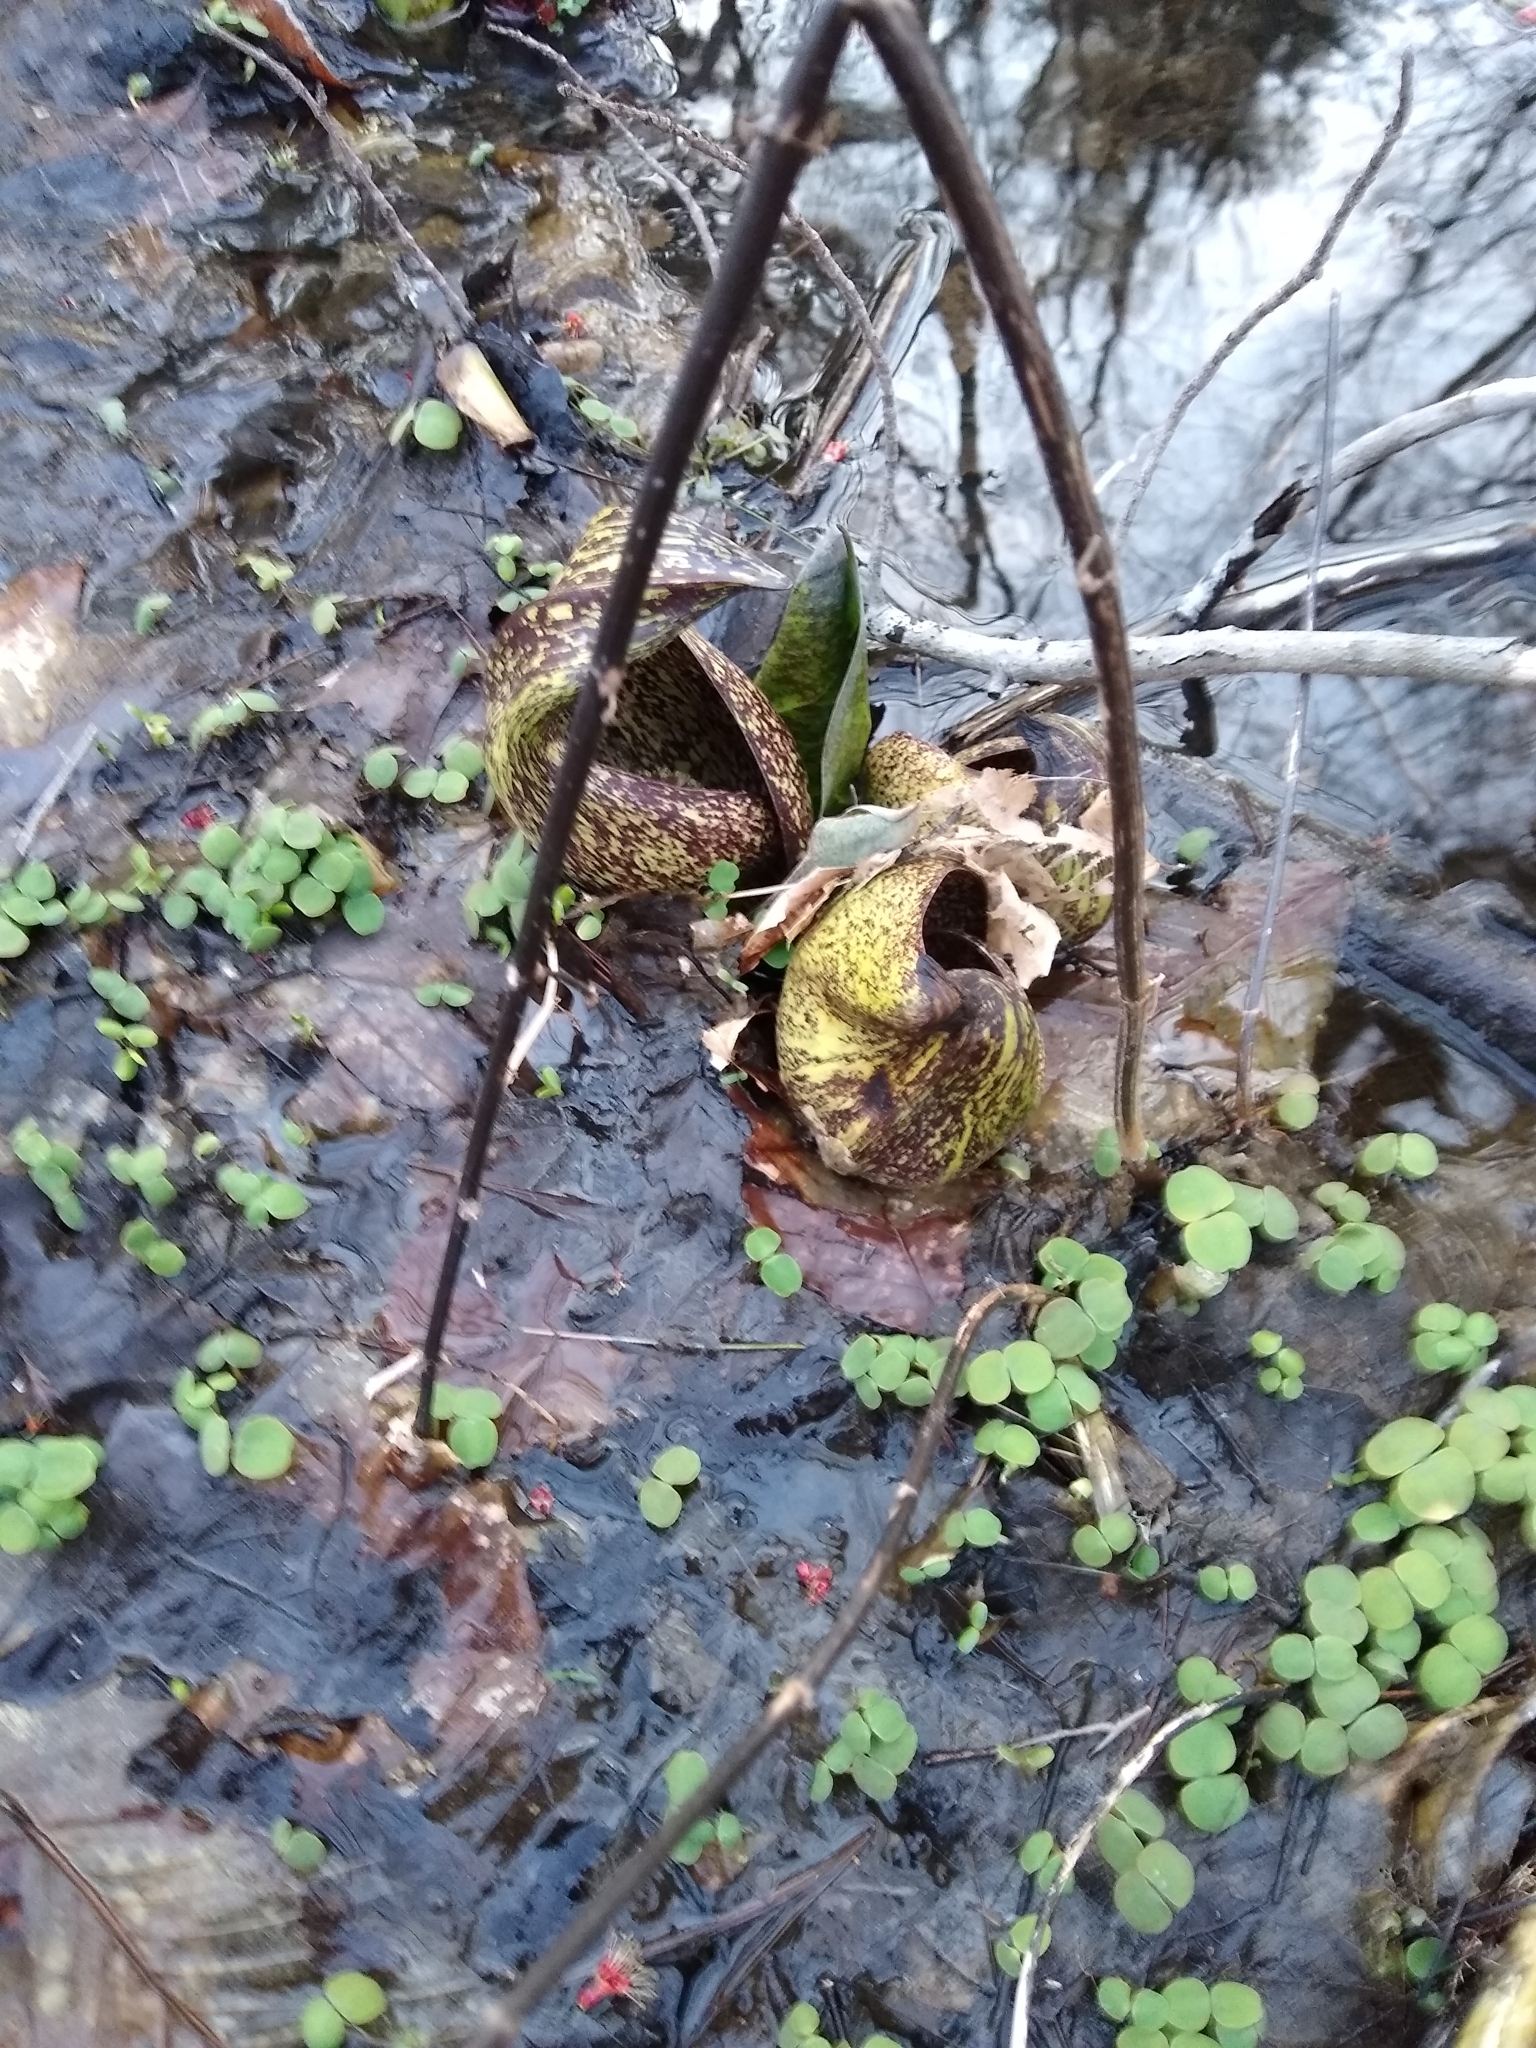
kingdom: Plantae
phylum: Tracheophyta
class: Liliopsida
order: Alismatales
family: Araceae
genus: Symplocarpus
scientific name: Symplocarpus foetidus
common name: Eastern skunk cabbage
